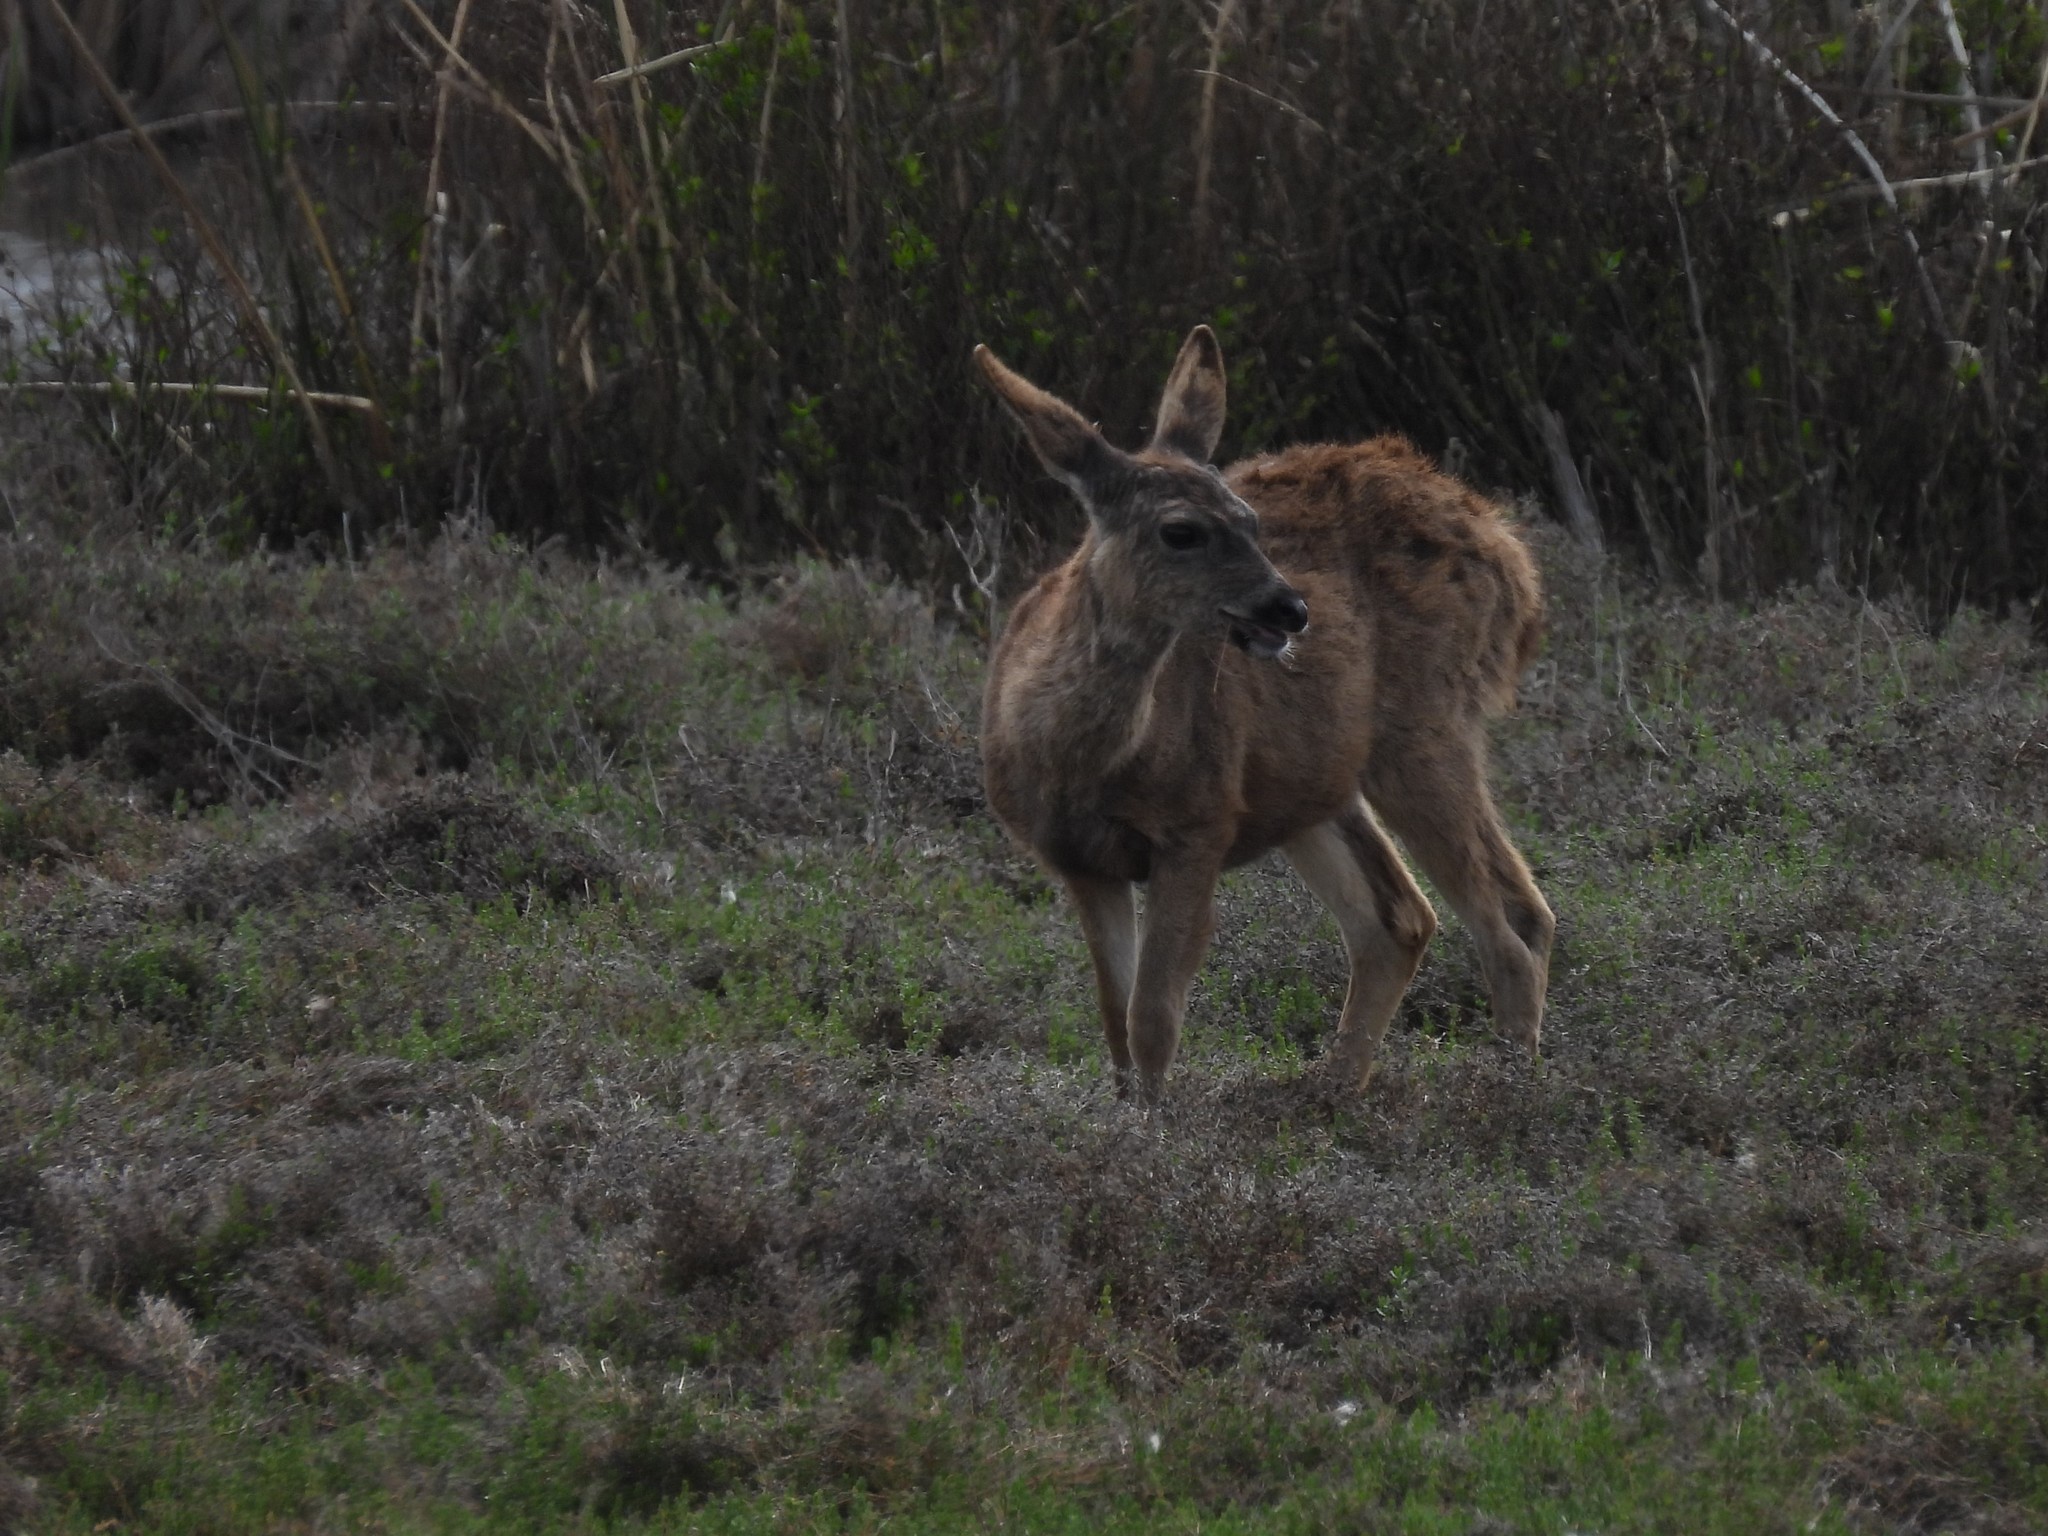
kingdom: Animalia
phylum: Chordata
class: Mammalia
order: Artiodactyla
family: Cervidae
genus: Odocoileus
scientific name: Odocoileus hemionus
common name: Mule deer
